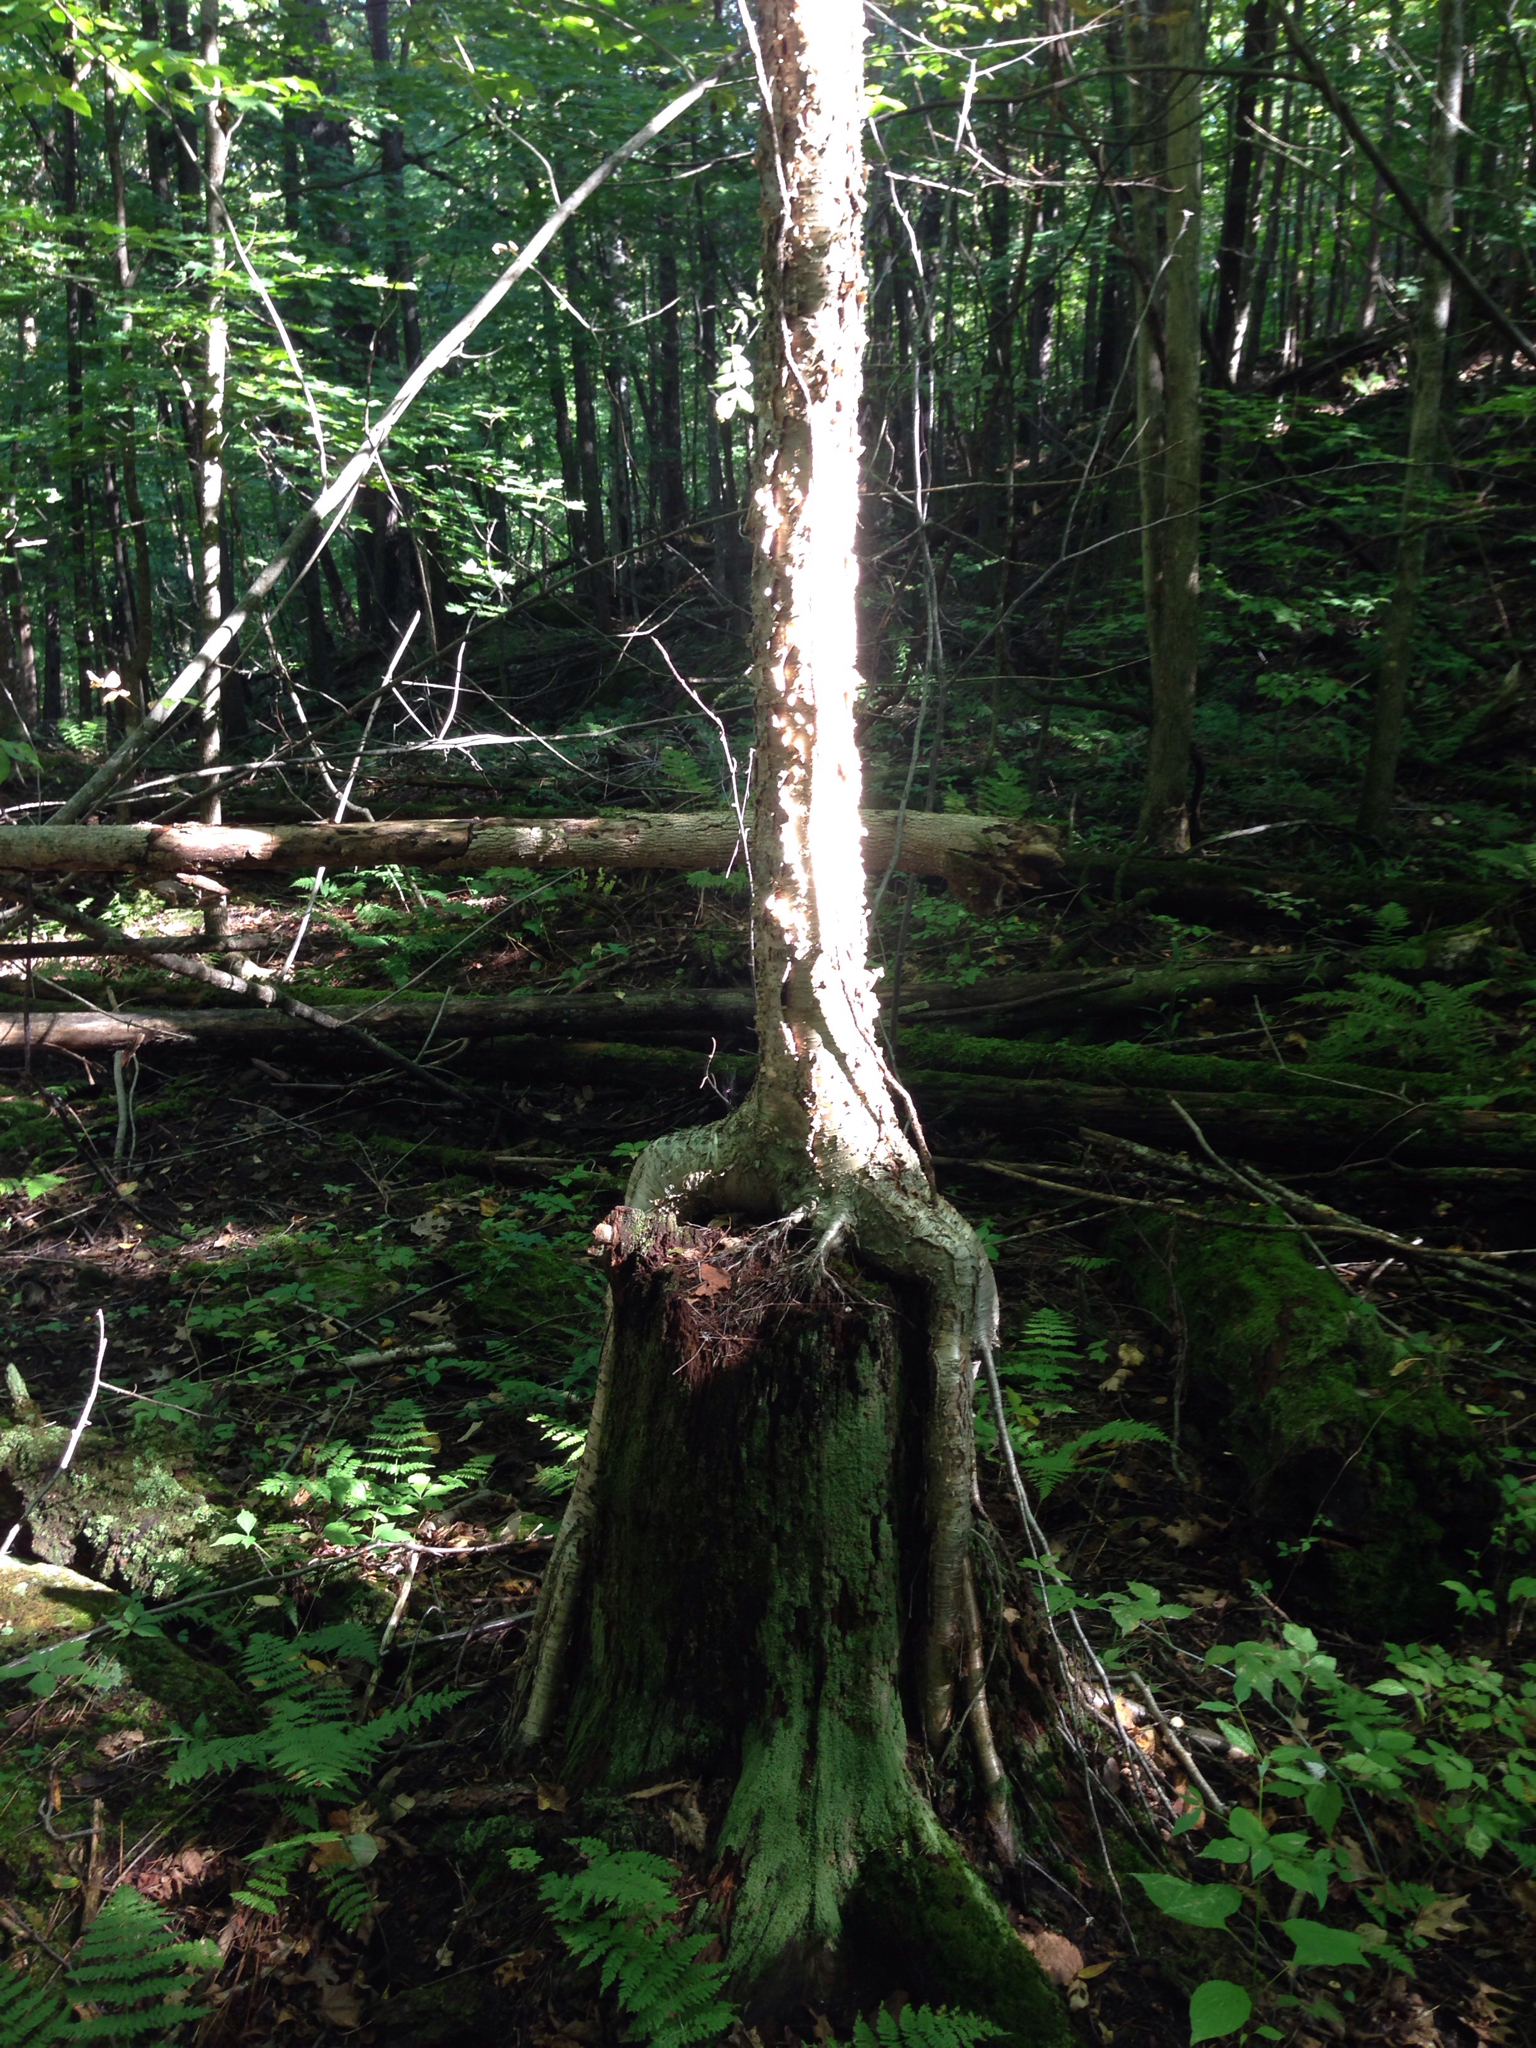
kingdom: Plantae
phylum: Tracheophyta
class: Magnoliopsida
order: Fagales
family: Betulaceae
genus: Betula
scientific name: Betula alleghaniensis
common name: Yellow birch
